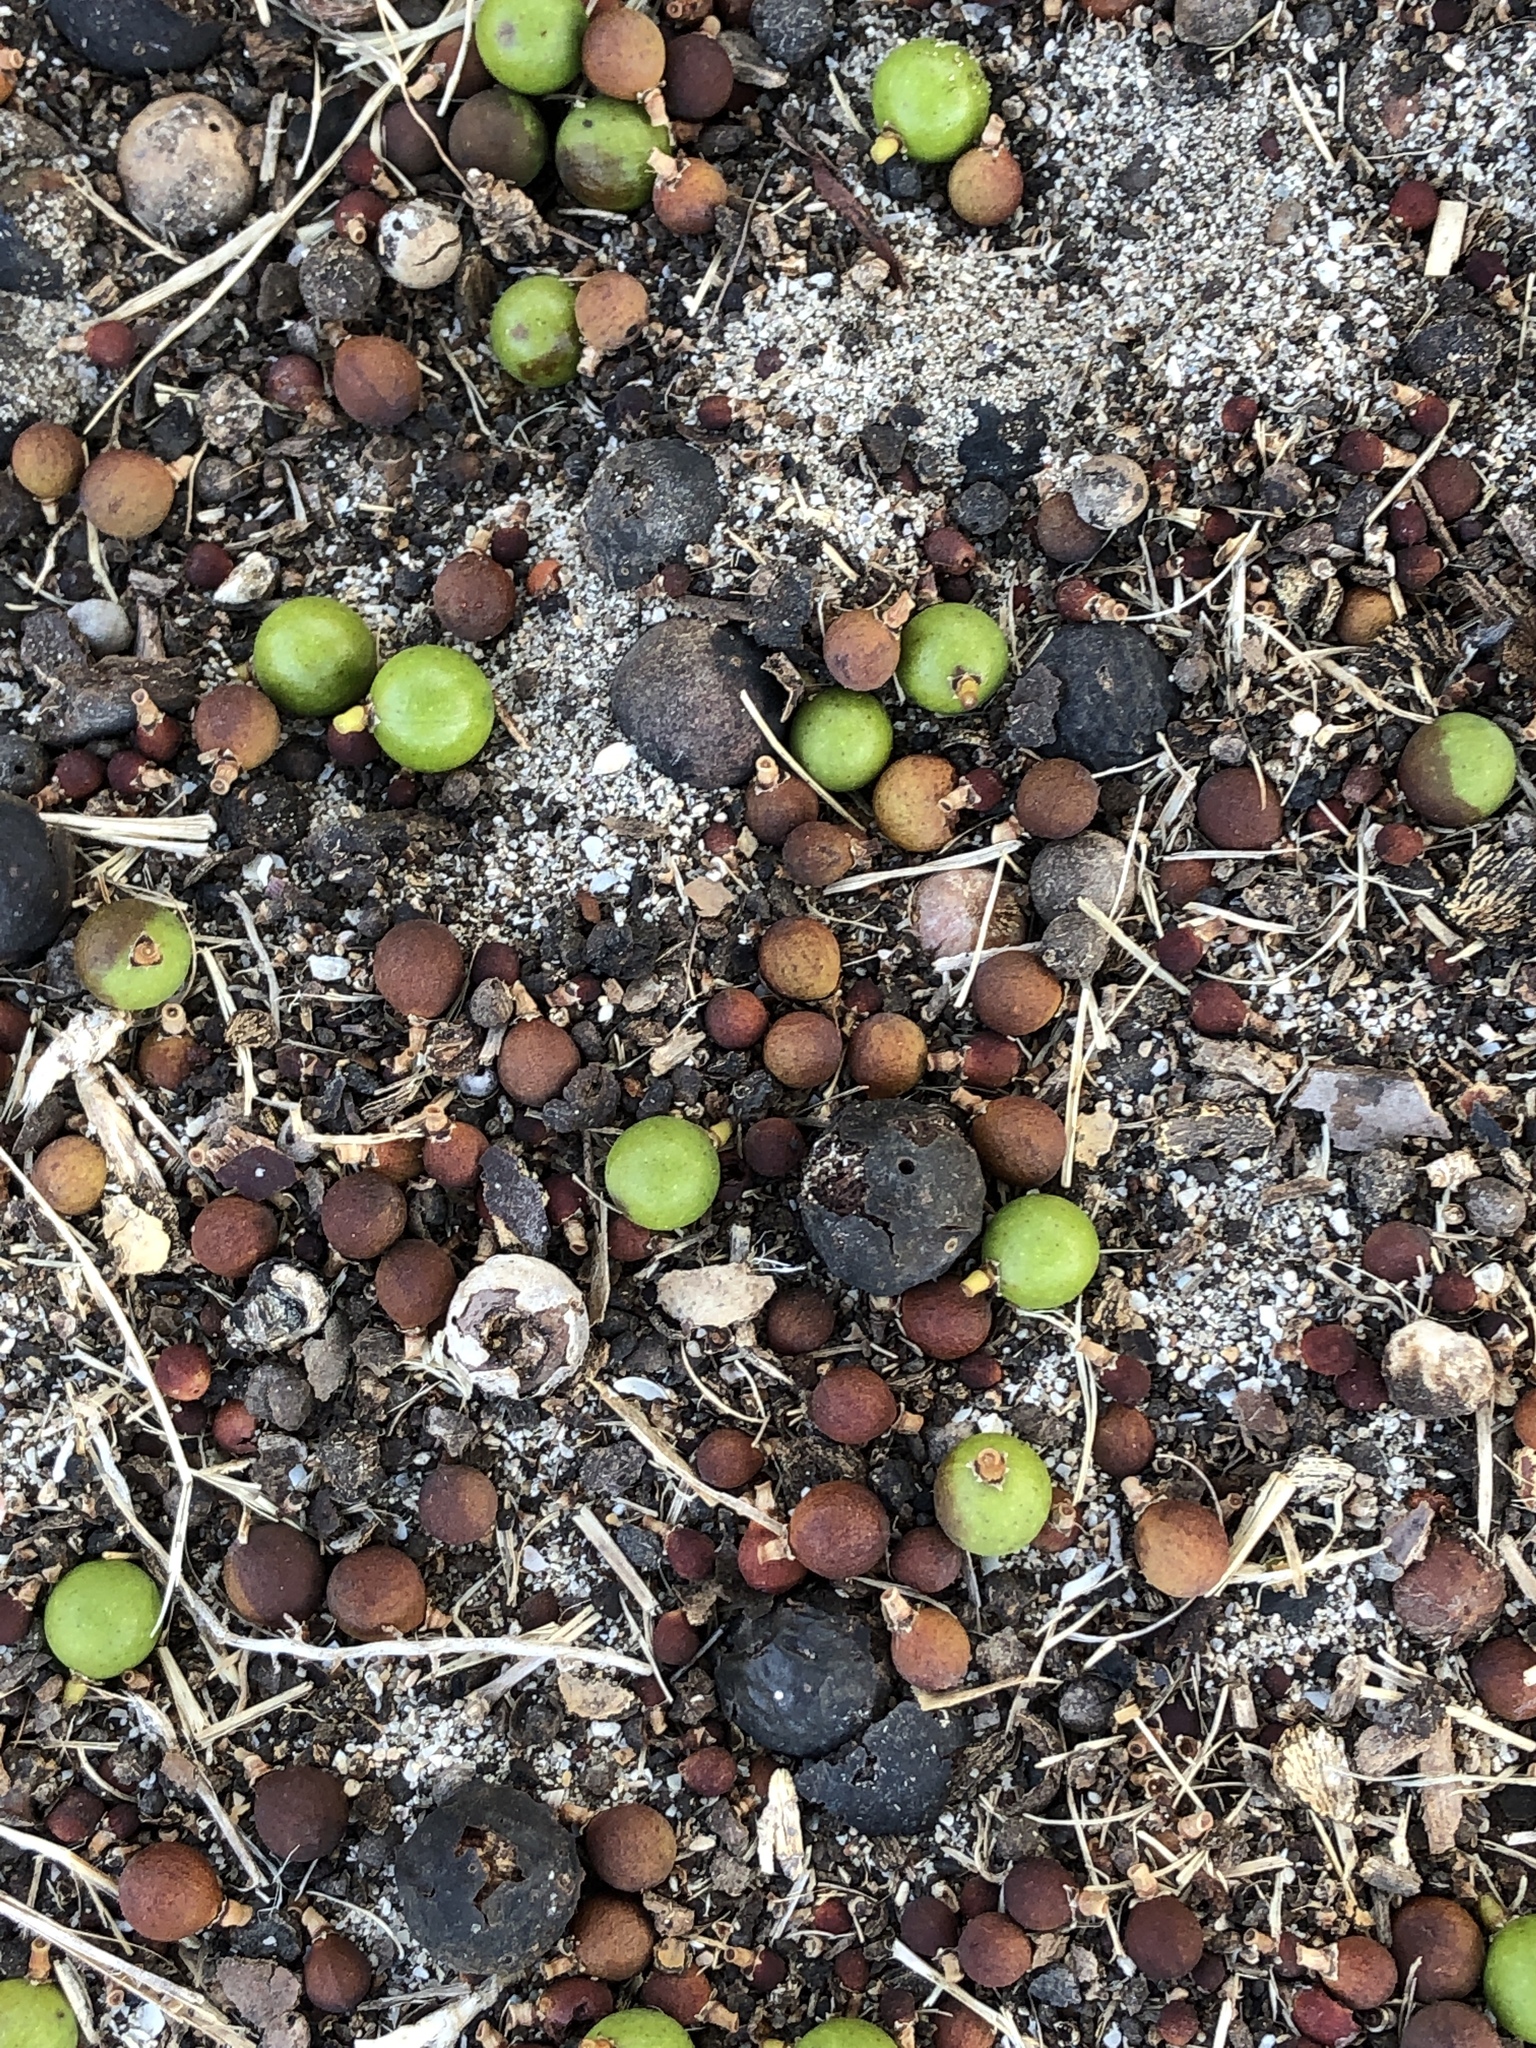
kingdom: Plantae
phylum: Tracheophyta
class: Liliopsida
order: Arecales
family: Arecaceae
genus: Livistona
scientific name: Livistona decora
